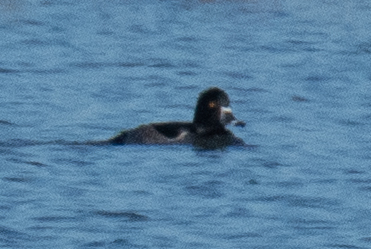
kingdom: Animalia
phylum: Chordata
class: Aves
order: Anseriformes
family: Anatidae
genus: Aythya
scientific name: Aythya collaris
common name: Ring-necked duck
